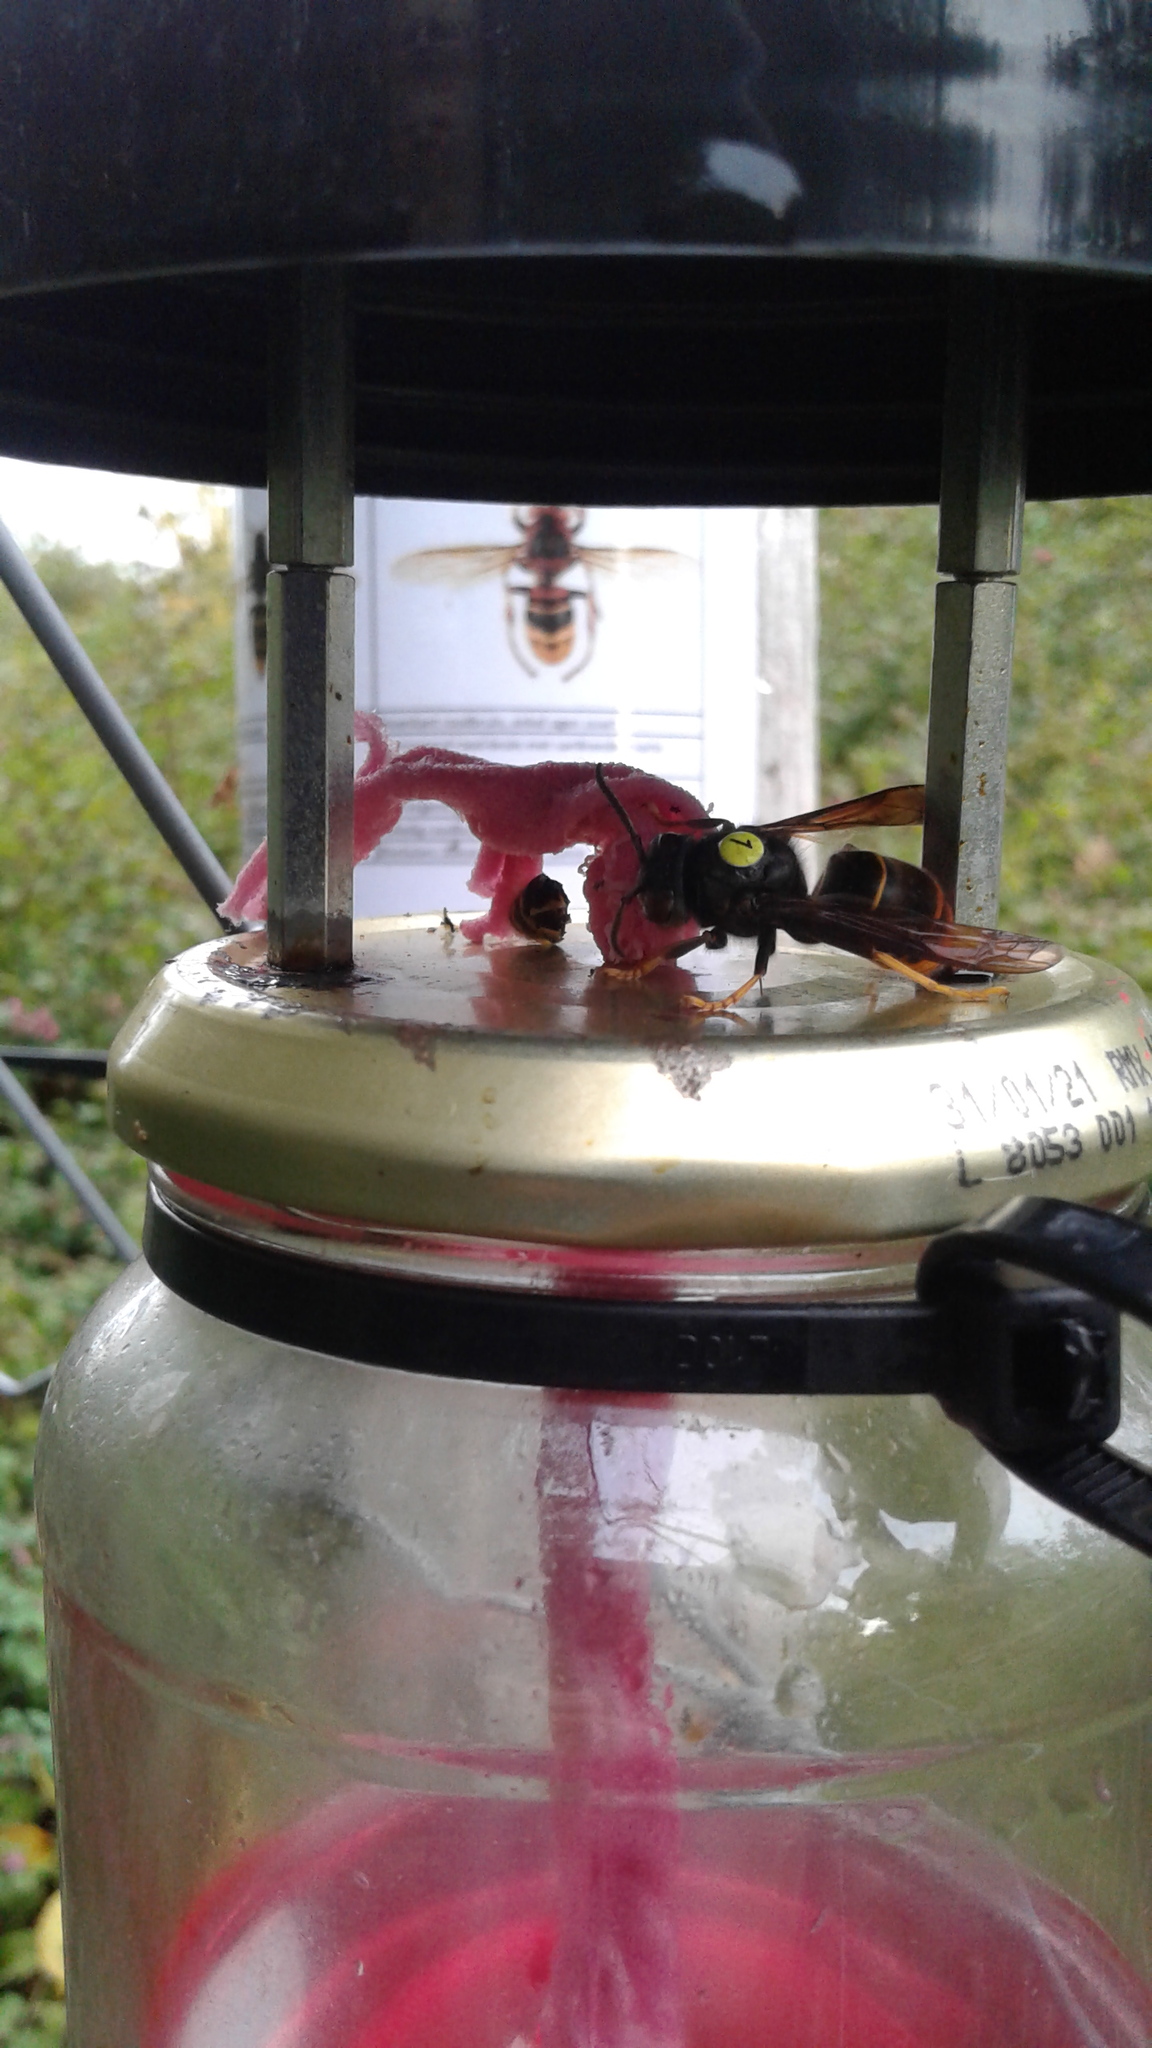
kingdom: Animalia
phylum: Arthropoda
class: Insecta
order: Hymenoptera
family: Vespidae
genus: Vespa
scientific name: Vespa velutina
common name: Asian hornet
